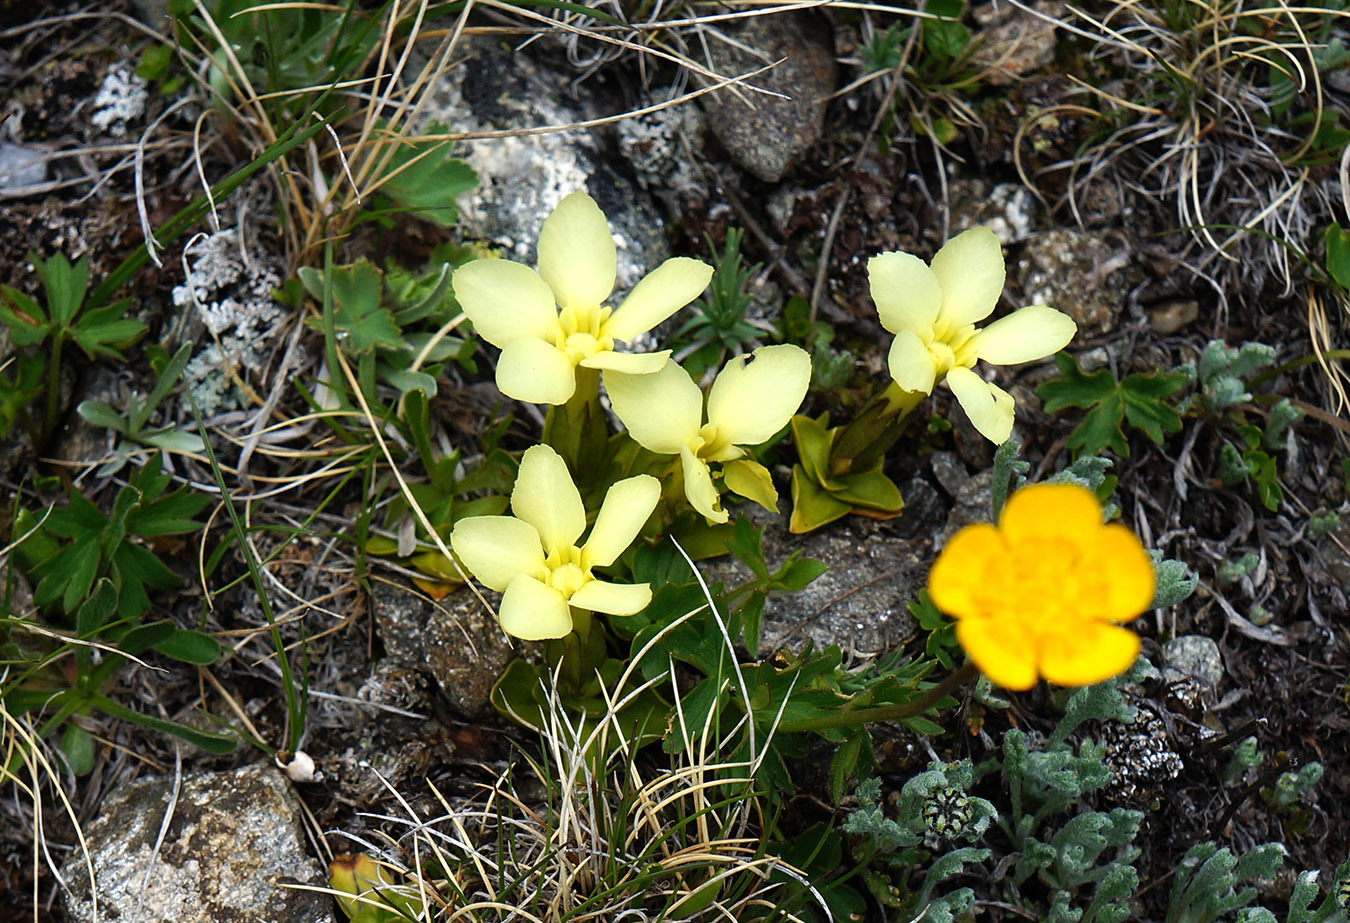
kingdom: Plantae
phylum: Tracheophyta
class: Magnoliopsida
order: Gentianales
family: Gentianaceae
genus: Gentiana
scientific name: Gentiana verna
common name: Spring gentian
